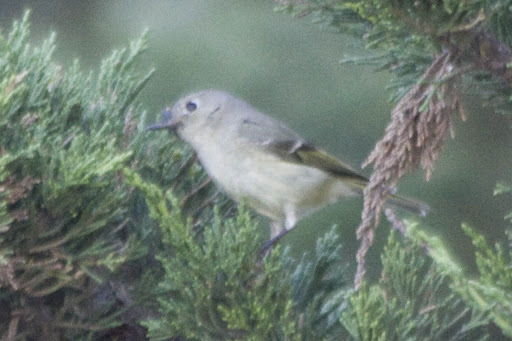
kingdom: Animalia
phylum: Chordata
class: Aves
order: Passeriformes
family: Regulidae
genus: Regulus
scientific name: Regulus calendula
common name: Ruby-crowned kinglet
